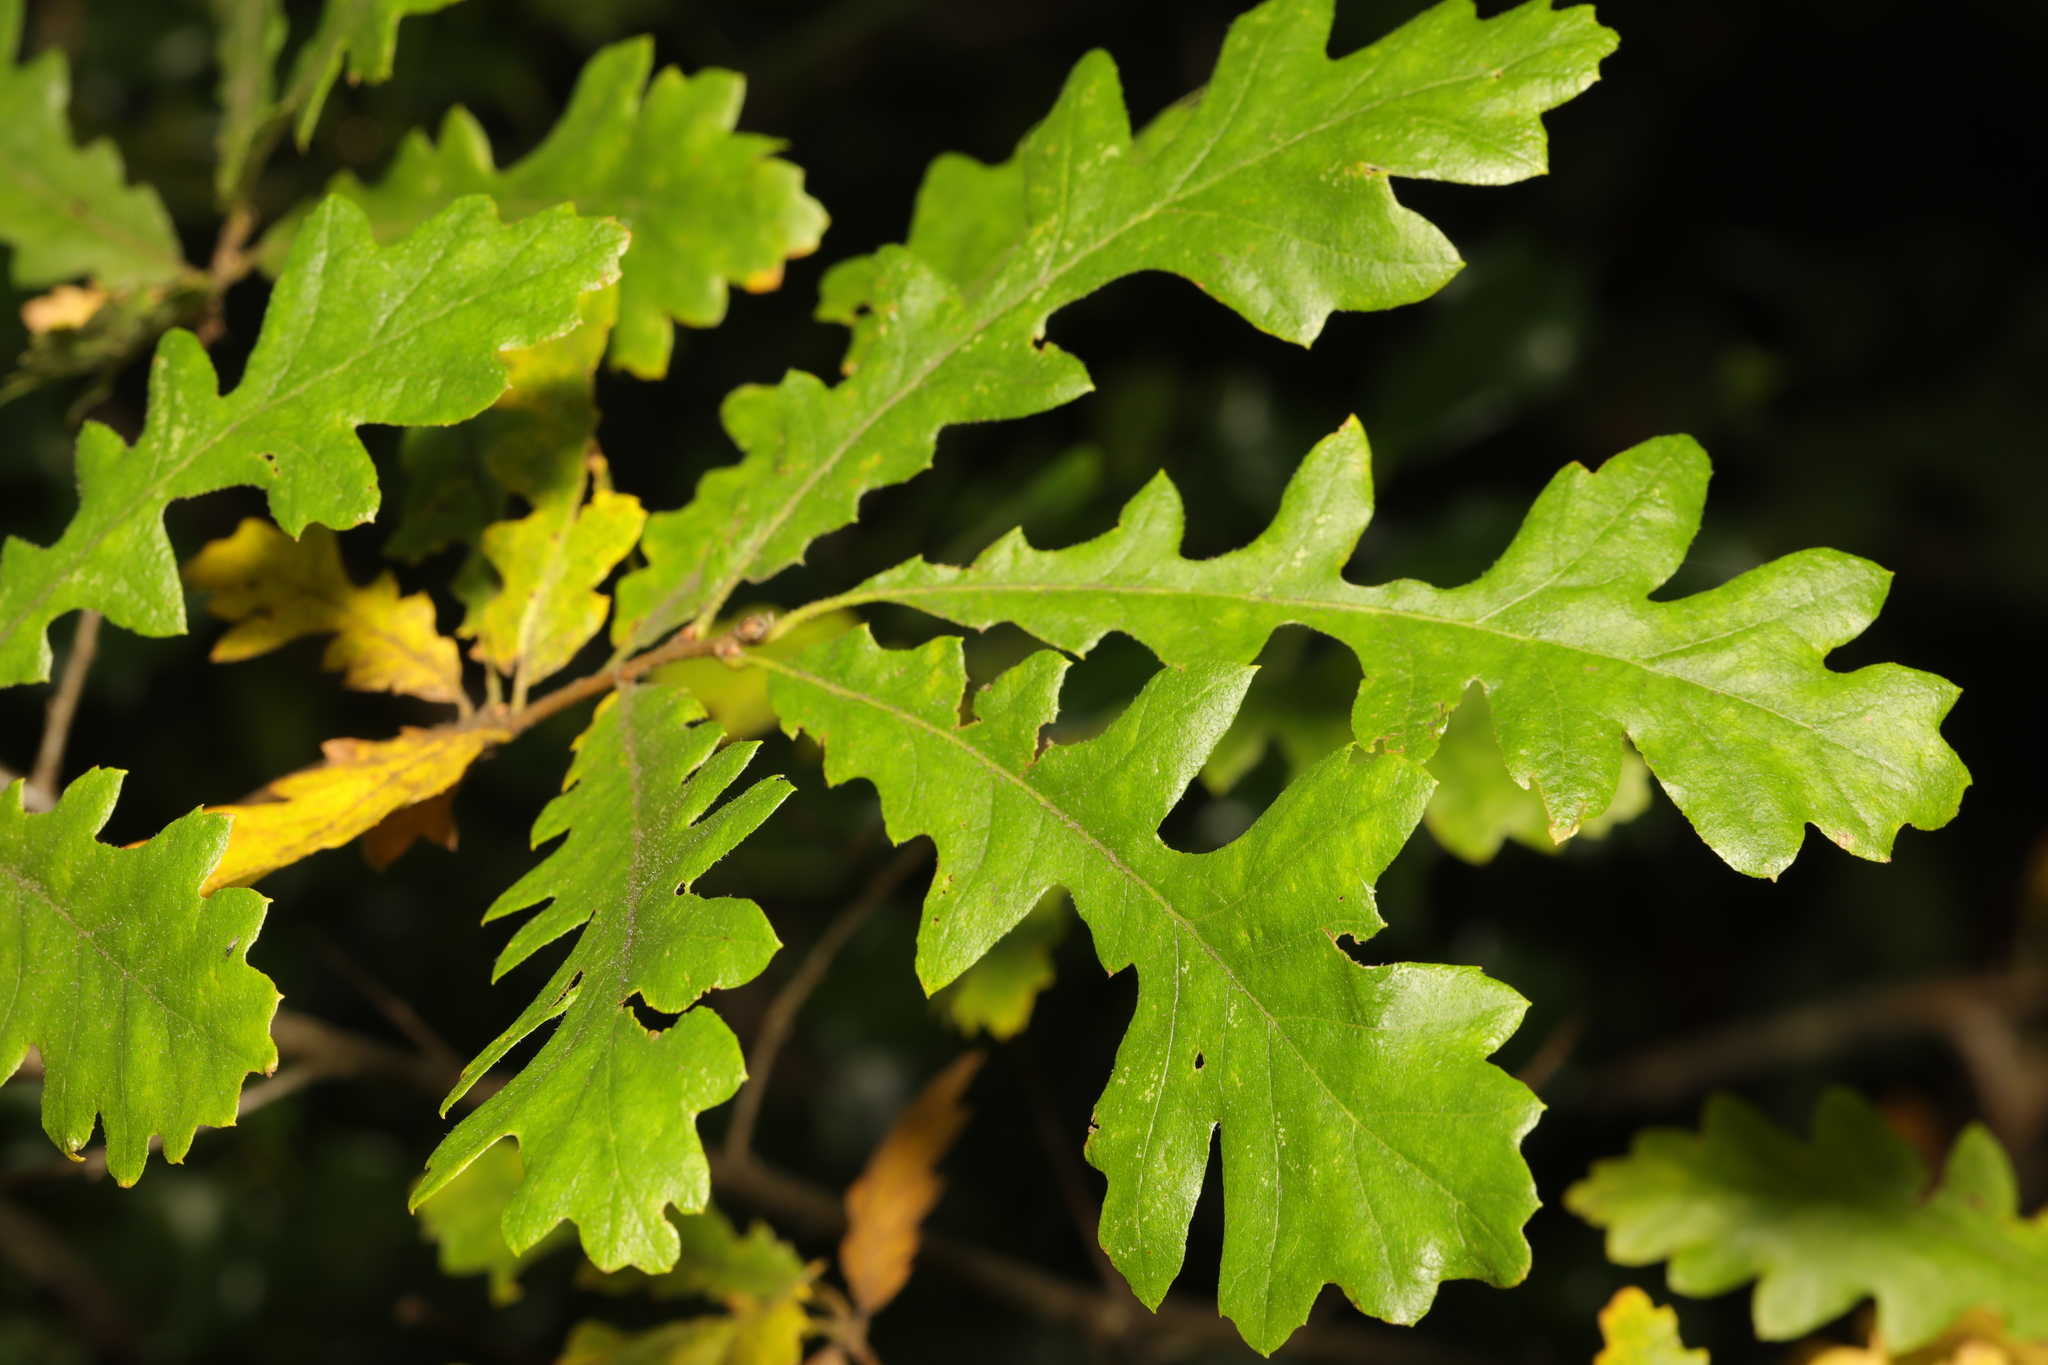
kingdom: Plantae
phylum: Tracheophyta
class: Magnoliopsida
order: Fagales
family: Fagaceae
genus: Quercus
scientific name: Quercus cerris
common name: Turkey oak
